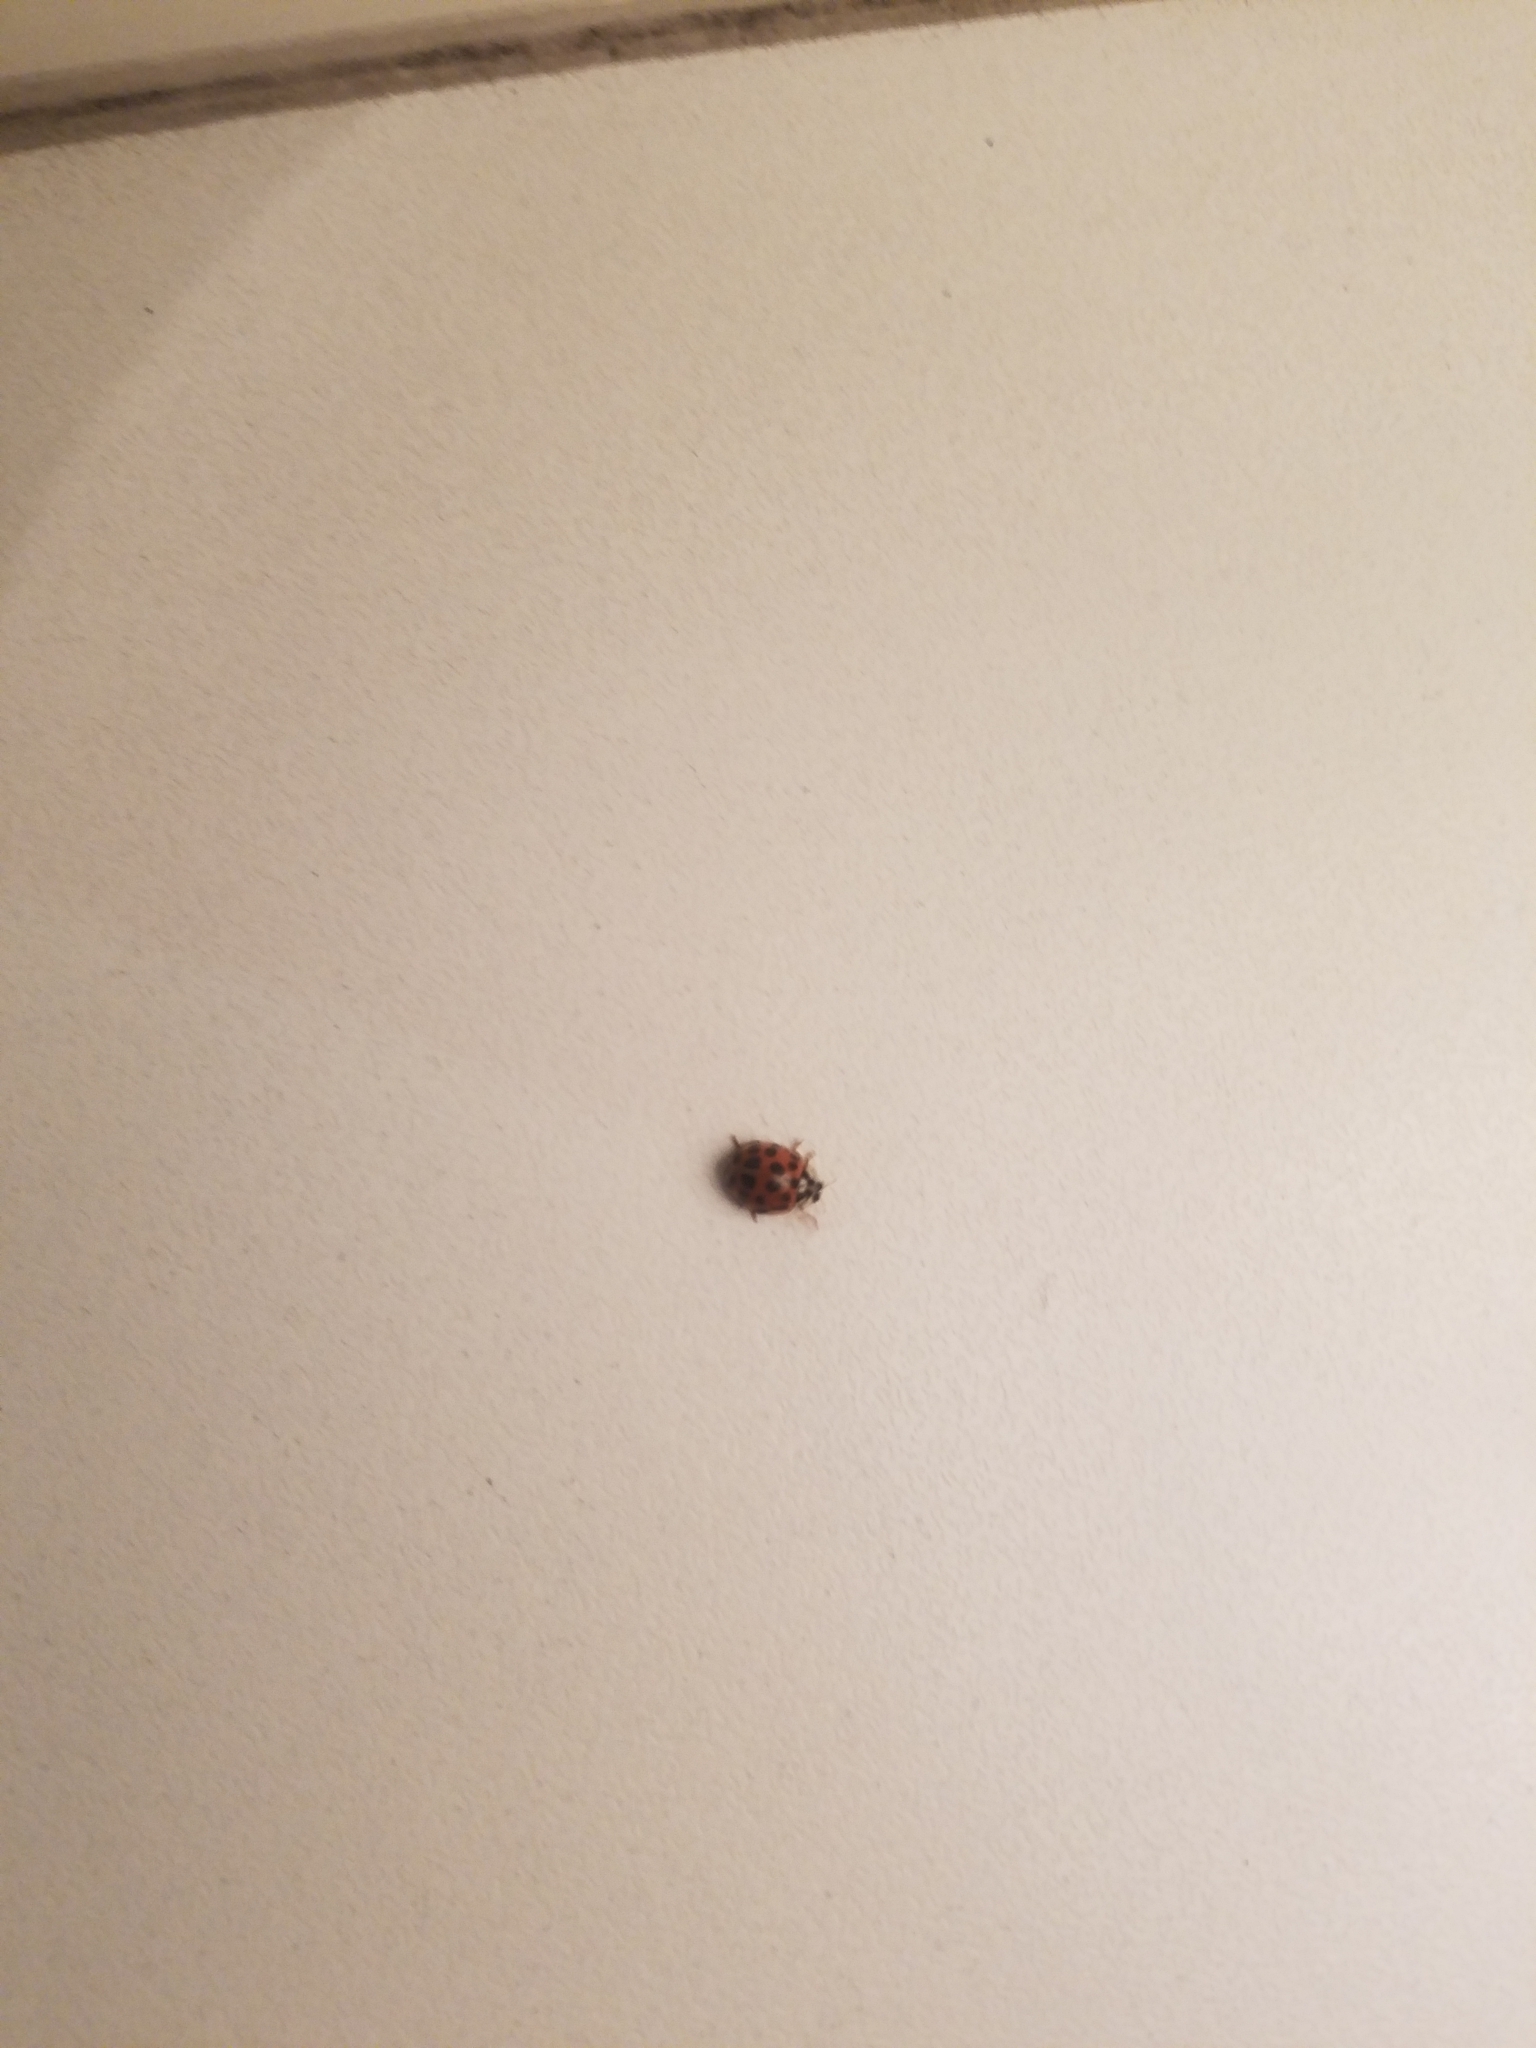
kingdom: Animalia
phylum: Arthropoda
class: Insecta
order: Coleoptera
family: Coccinellidae
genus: Harmonia
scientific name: Harmonia axyridis
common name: Harlequin ladybird
